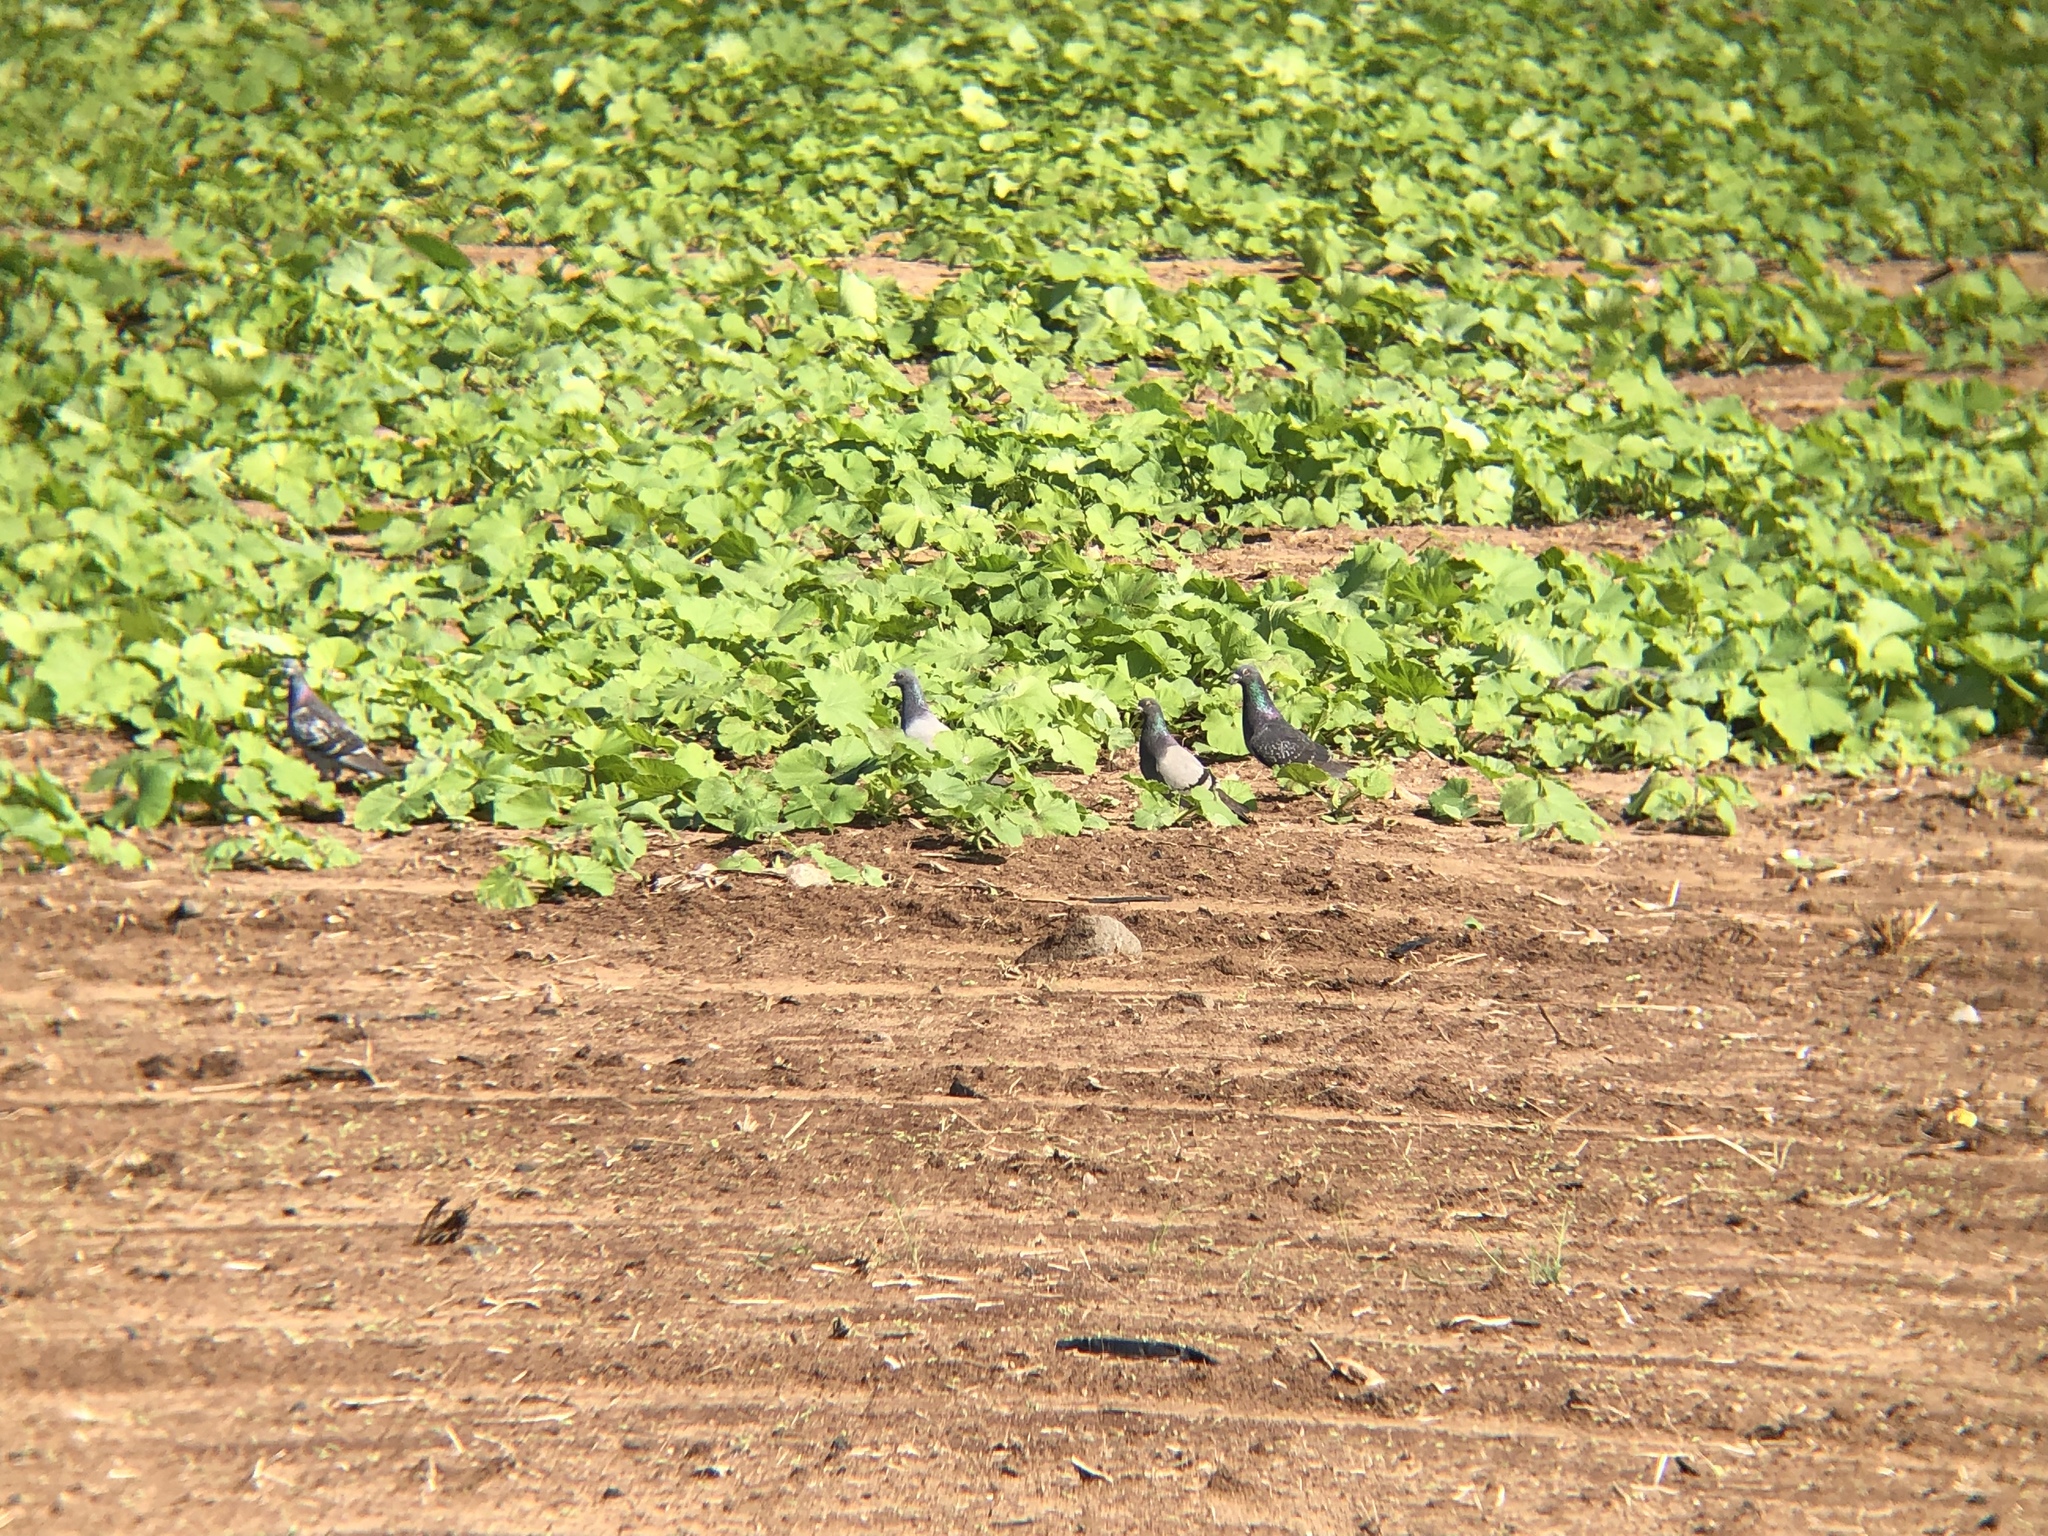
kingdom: Animalia
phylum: Chordata
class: Aves
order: Columbiformes
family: Columbidae
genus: Columba
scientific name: Columba livia
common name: Rock pigeon
